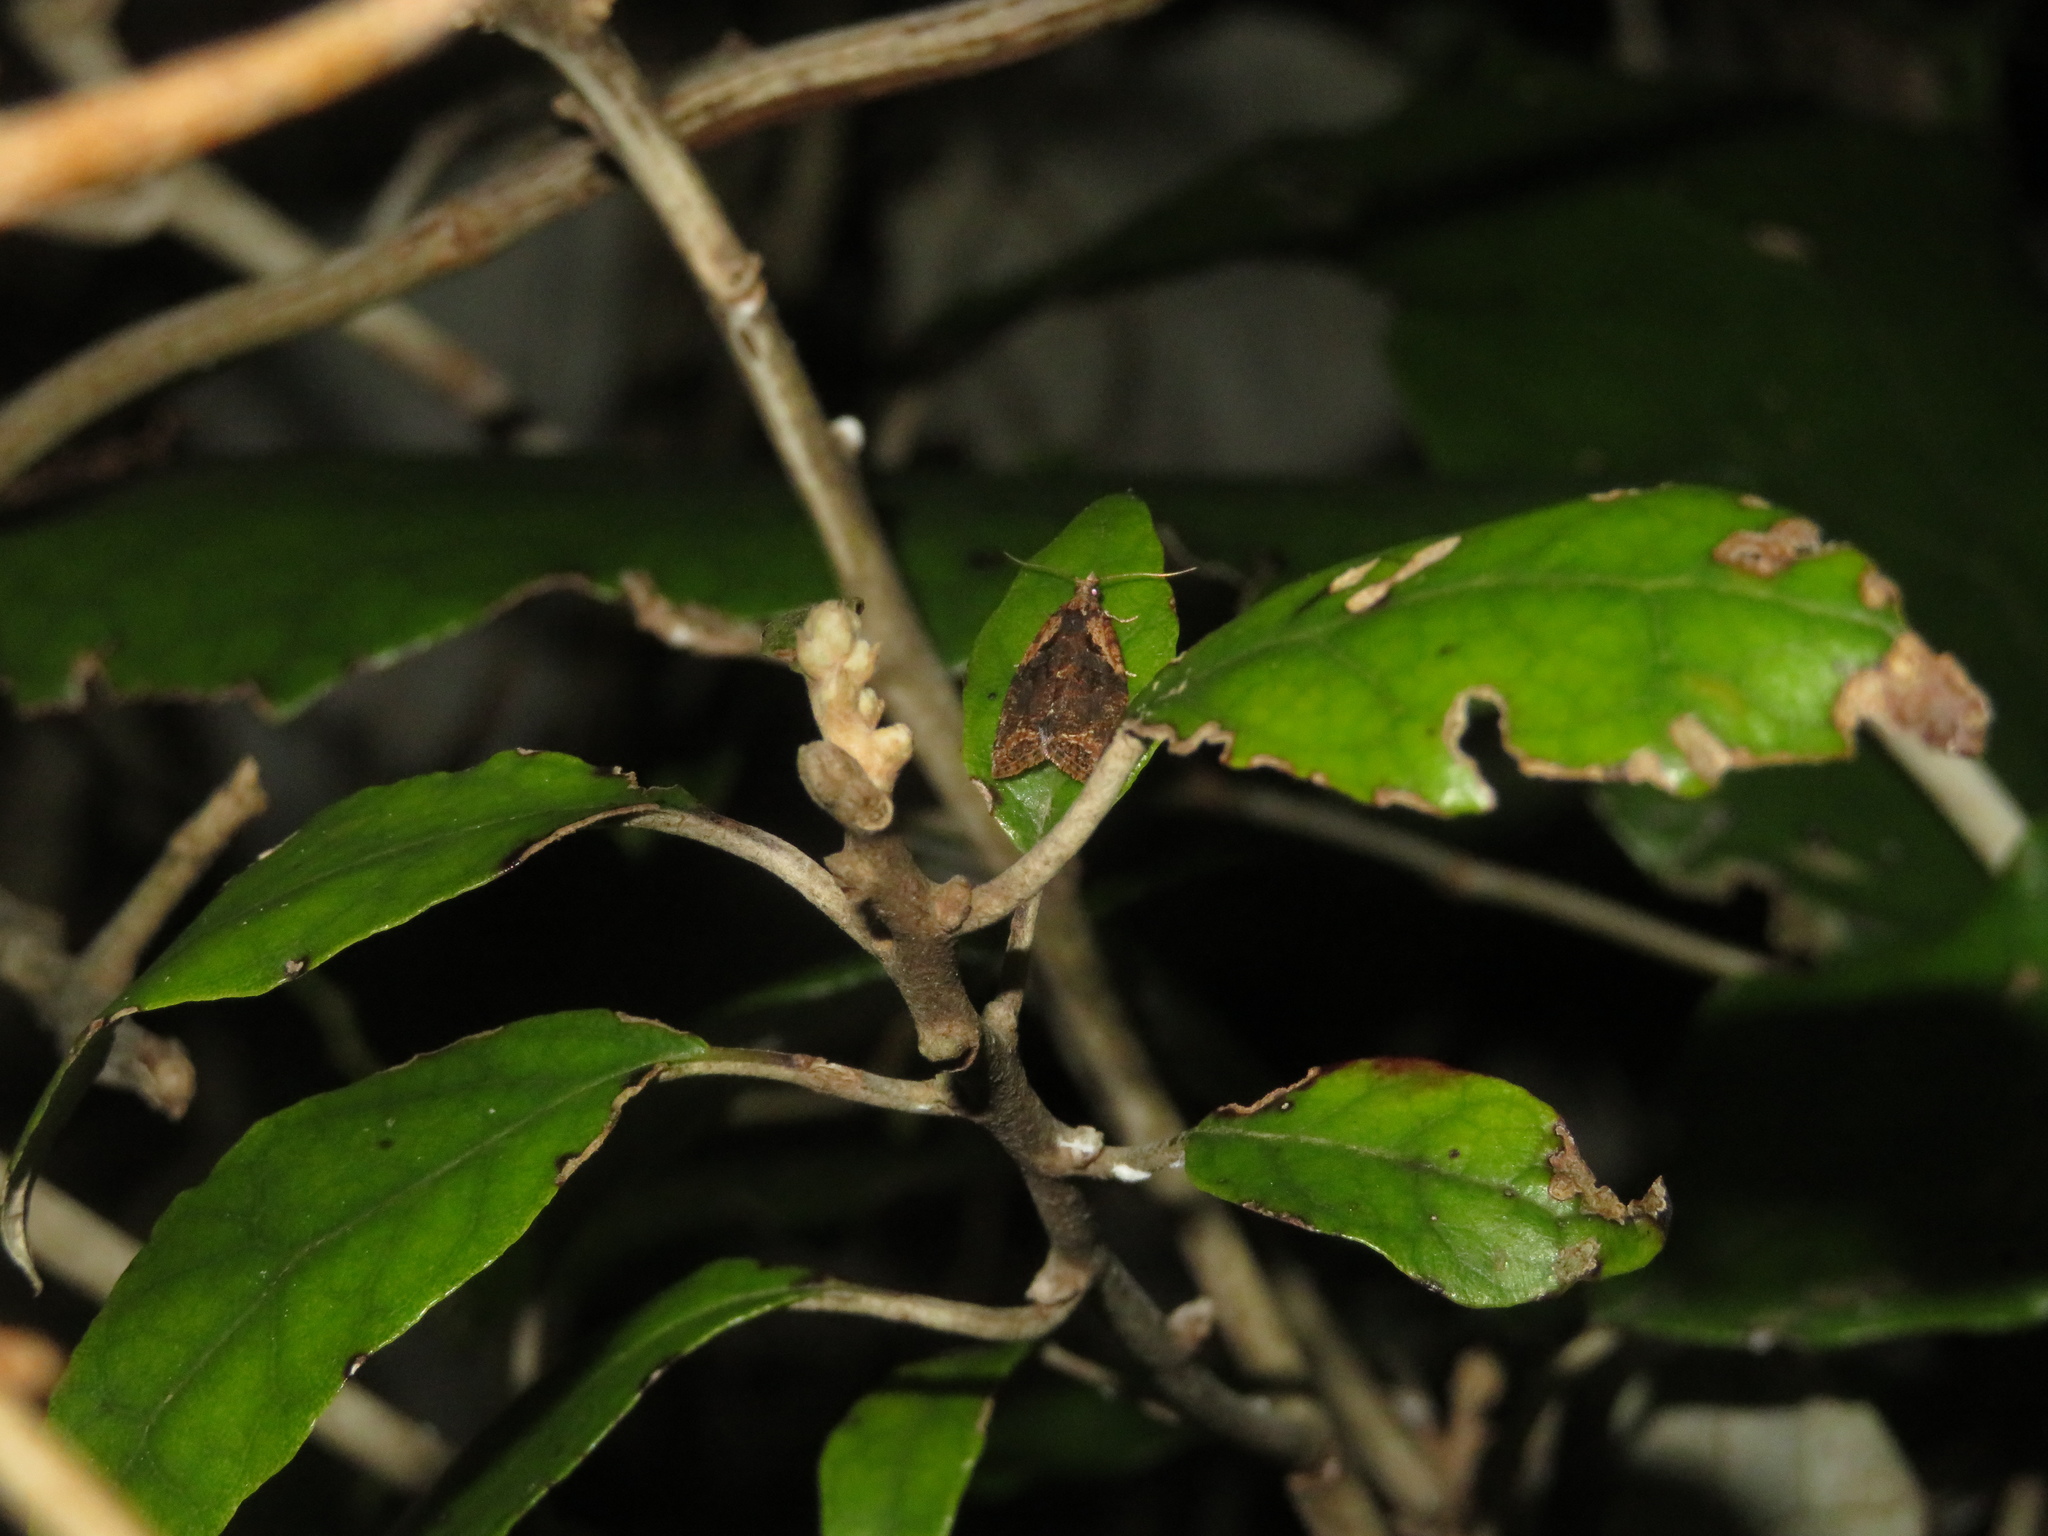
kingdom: Animalia
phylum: Arthropoda
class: Insecta
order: Lepidoptera
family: Tortricidae
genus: Capua
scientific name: Capua intractana
